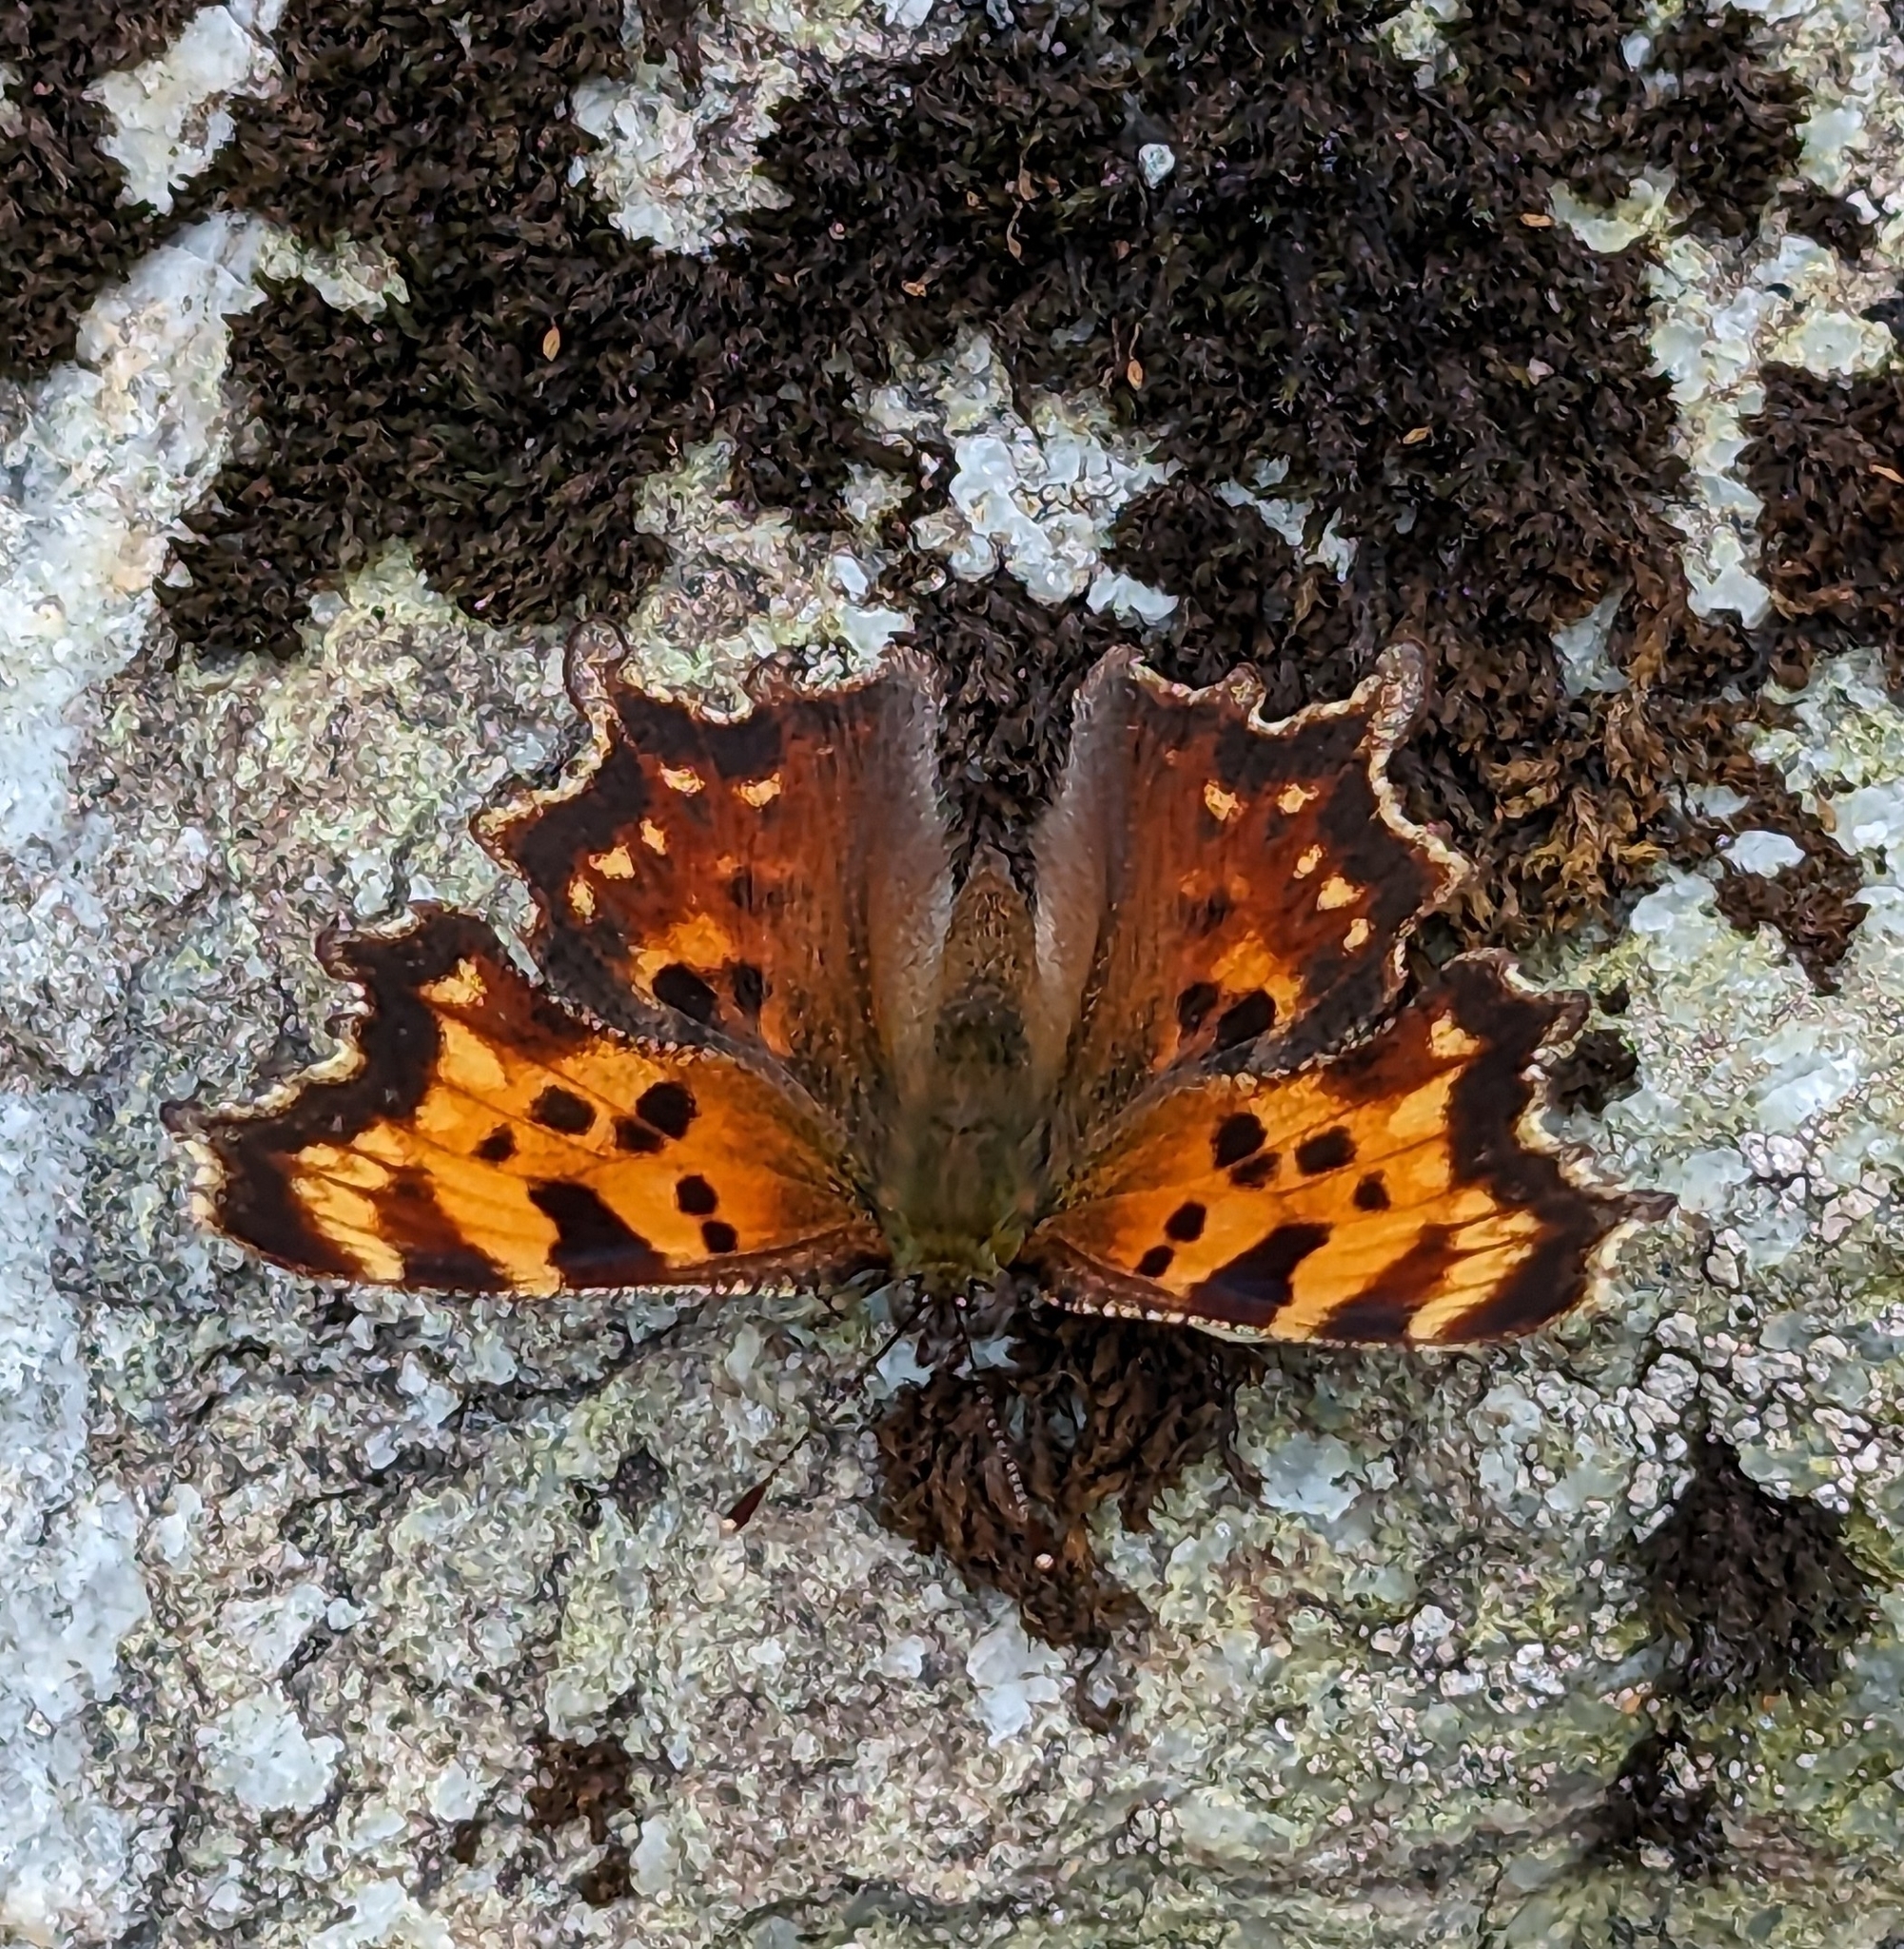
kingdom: Animalia
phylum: Arthropoda
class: Insecta
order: Lepidoptera
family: Nymphalidae
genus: Polygonia
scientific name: Polygonia faunus
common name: Green comma
